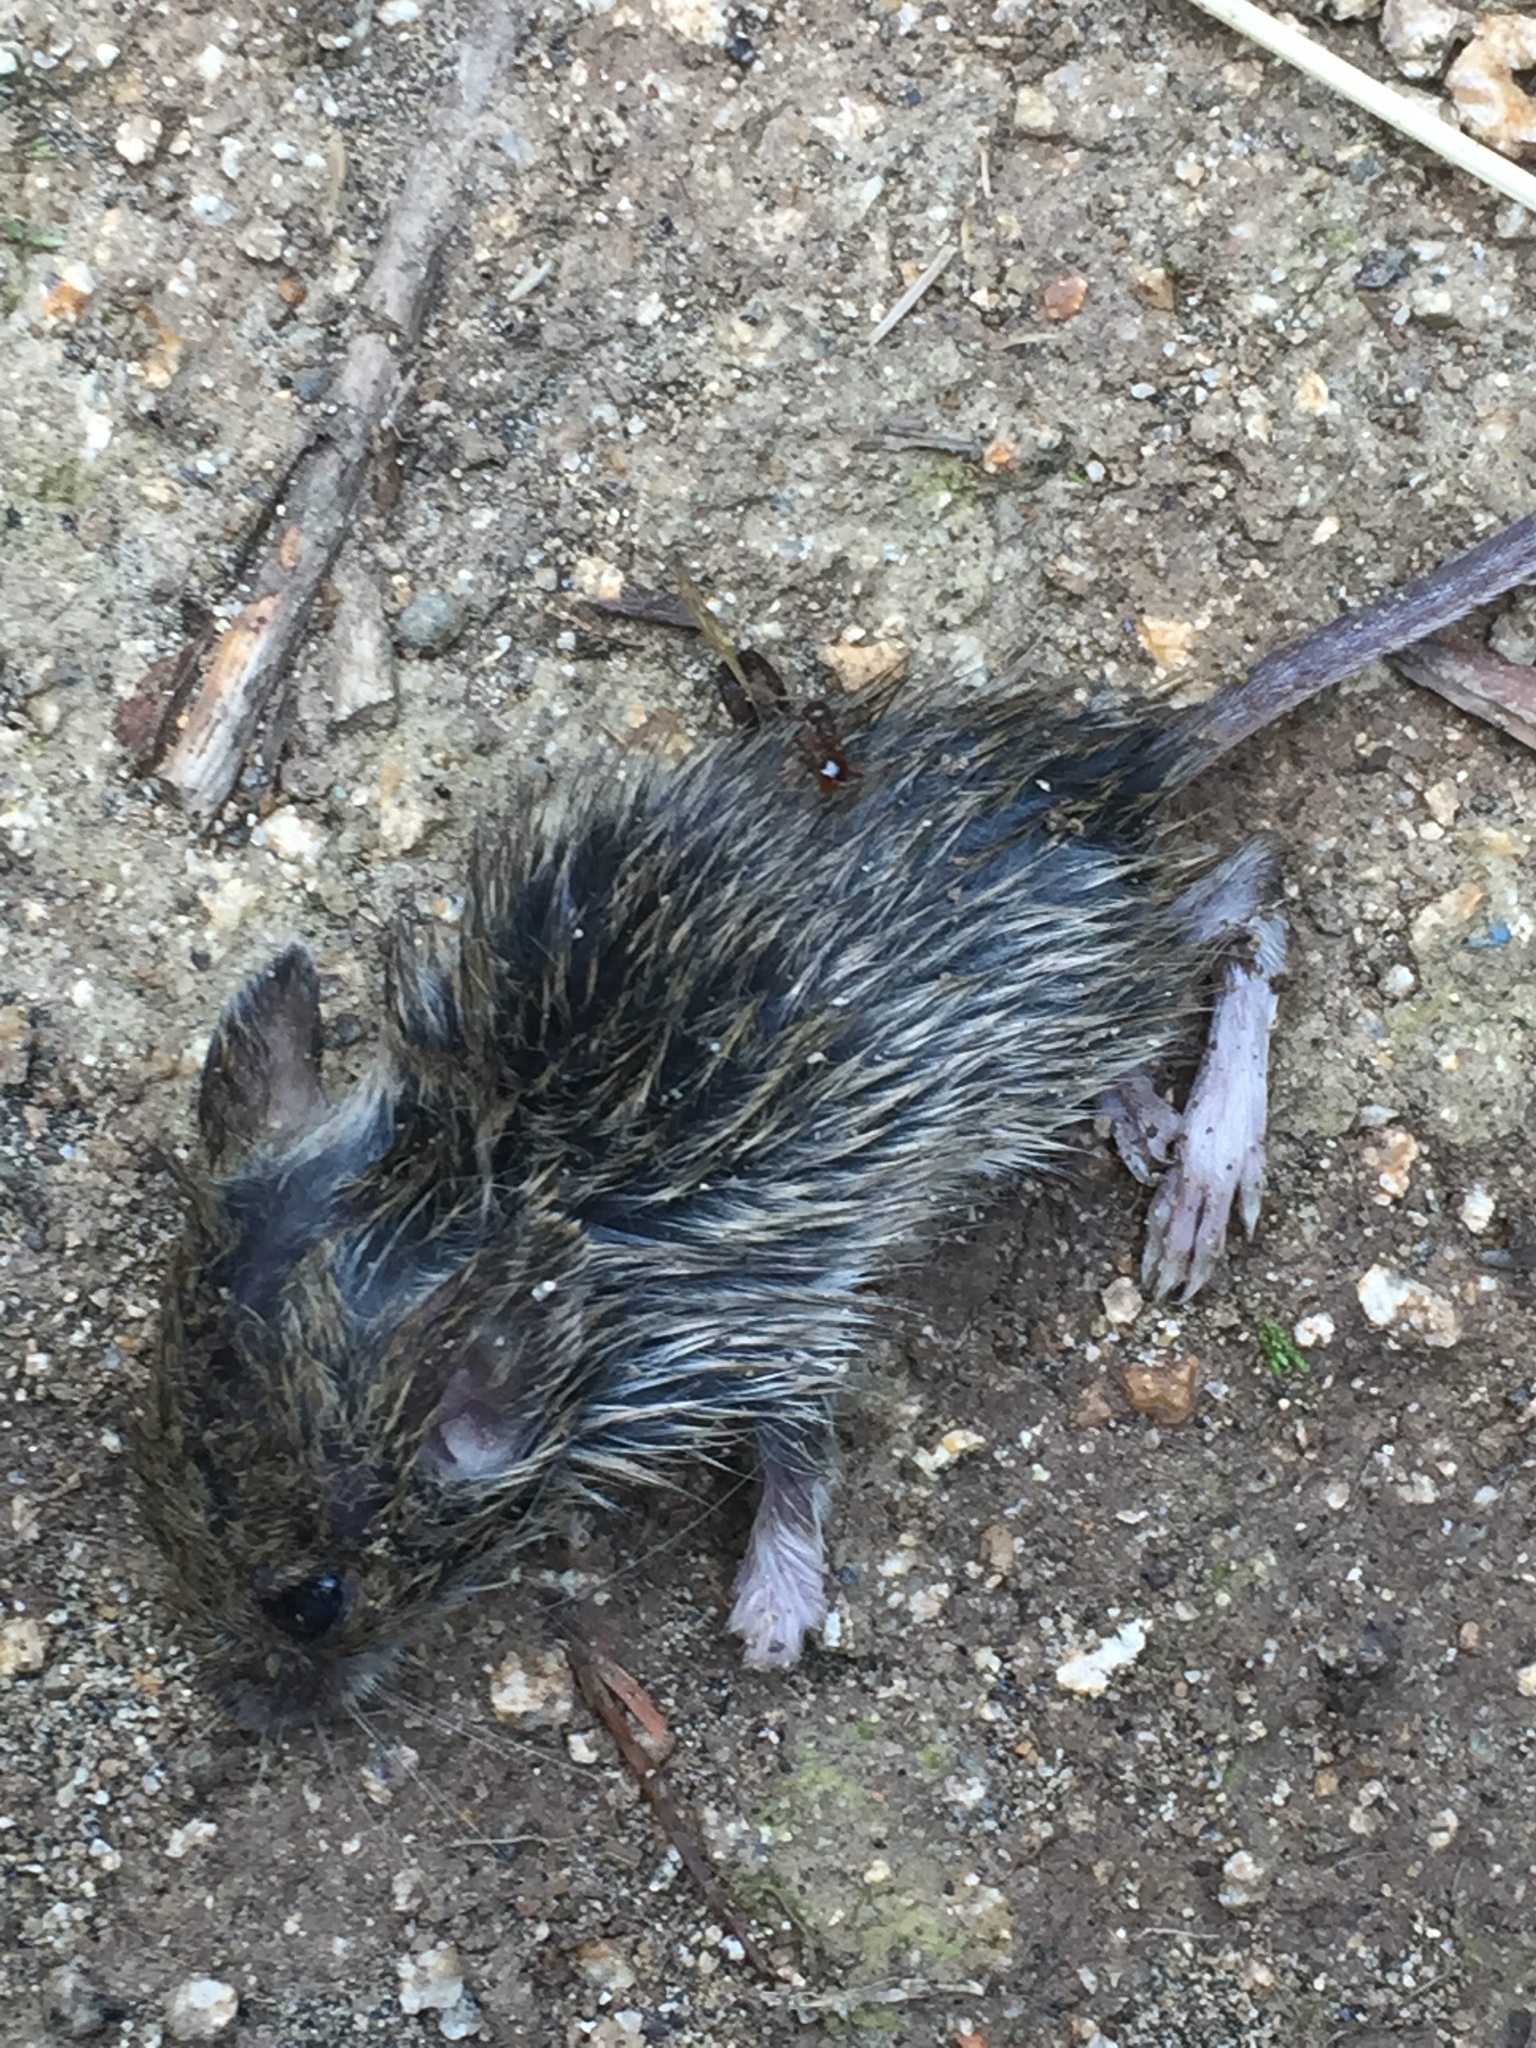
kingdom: Animalia
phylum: Chordata
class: Mammalia
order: Rodentia
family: Muridae
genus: Mus
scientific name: Mus musculus
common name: House mouse
